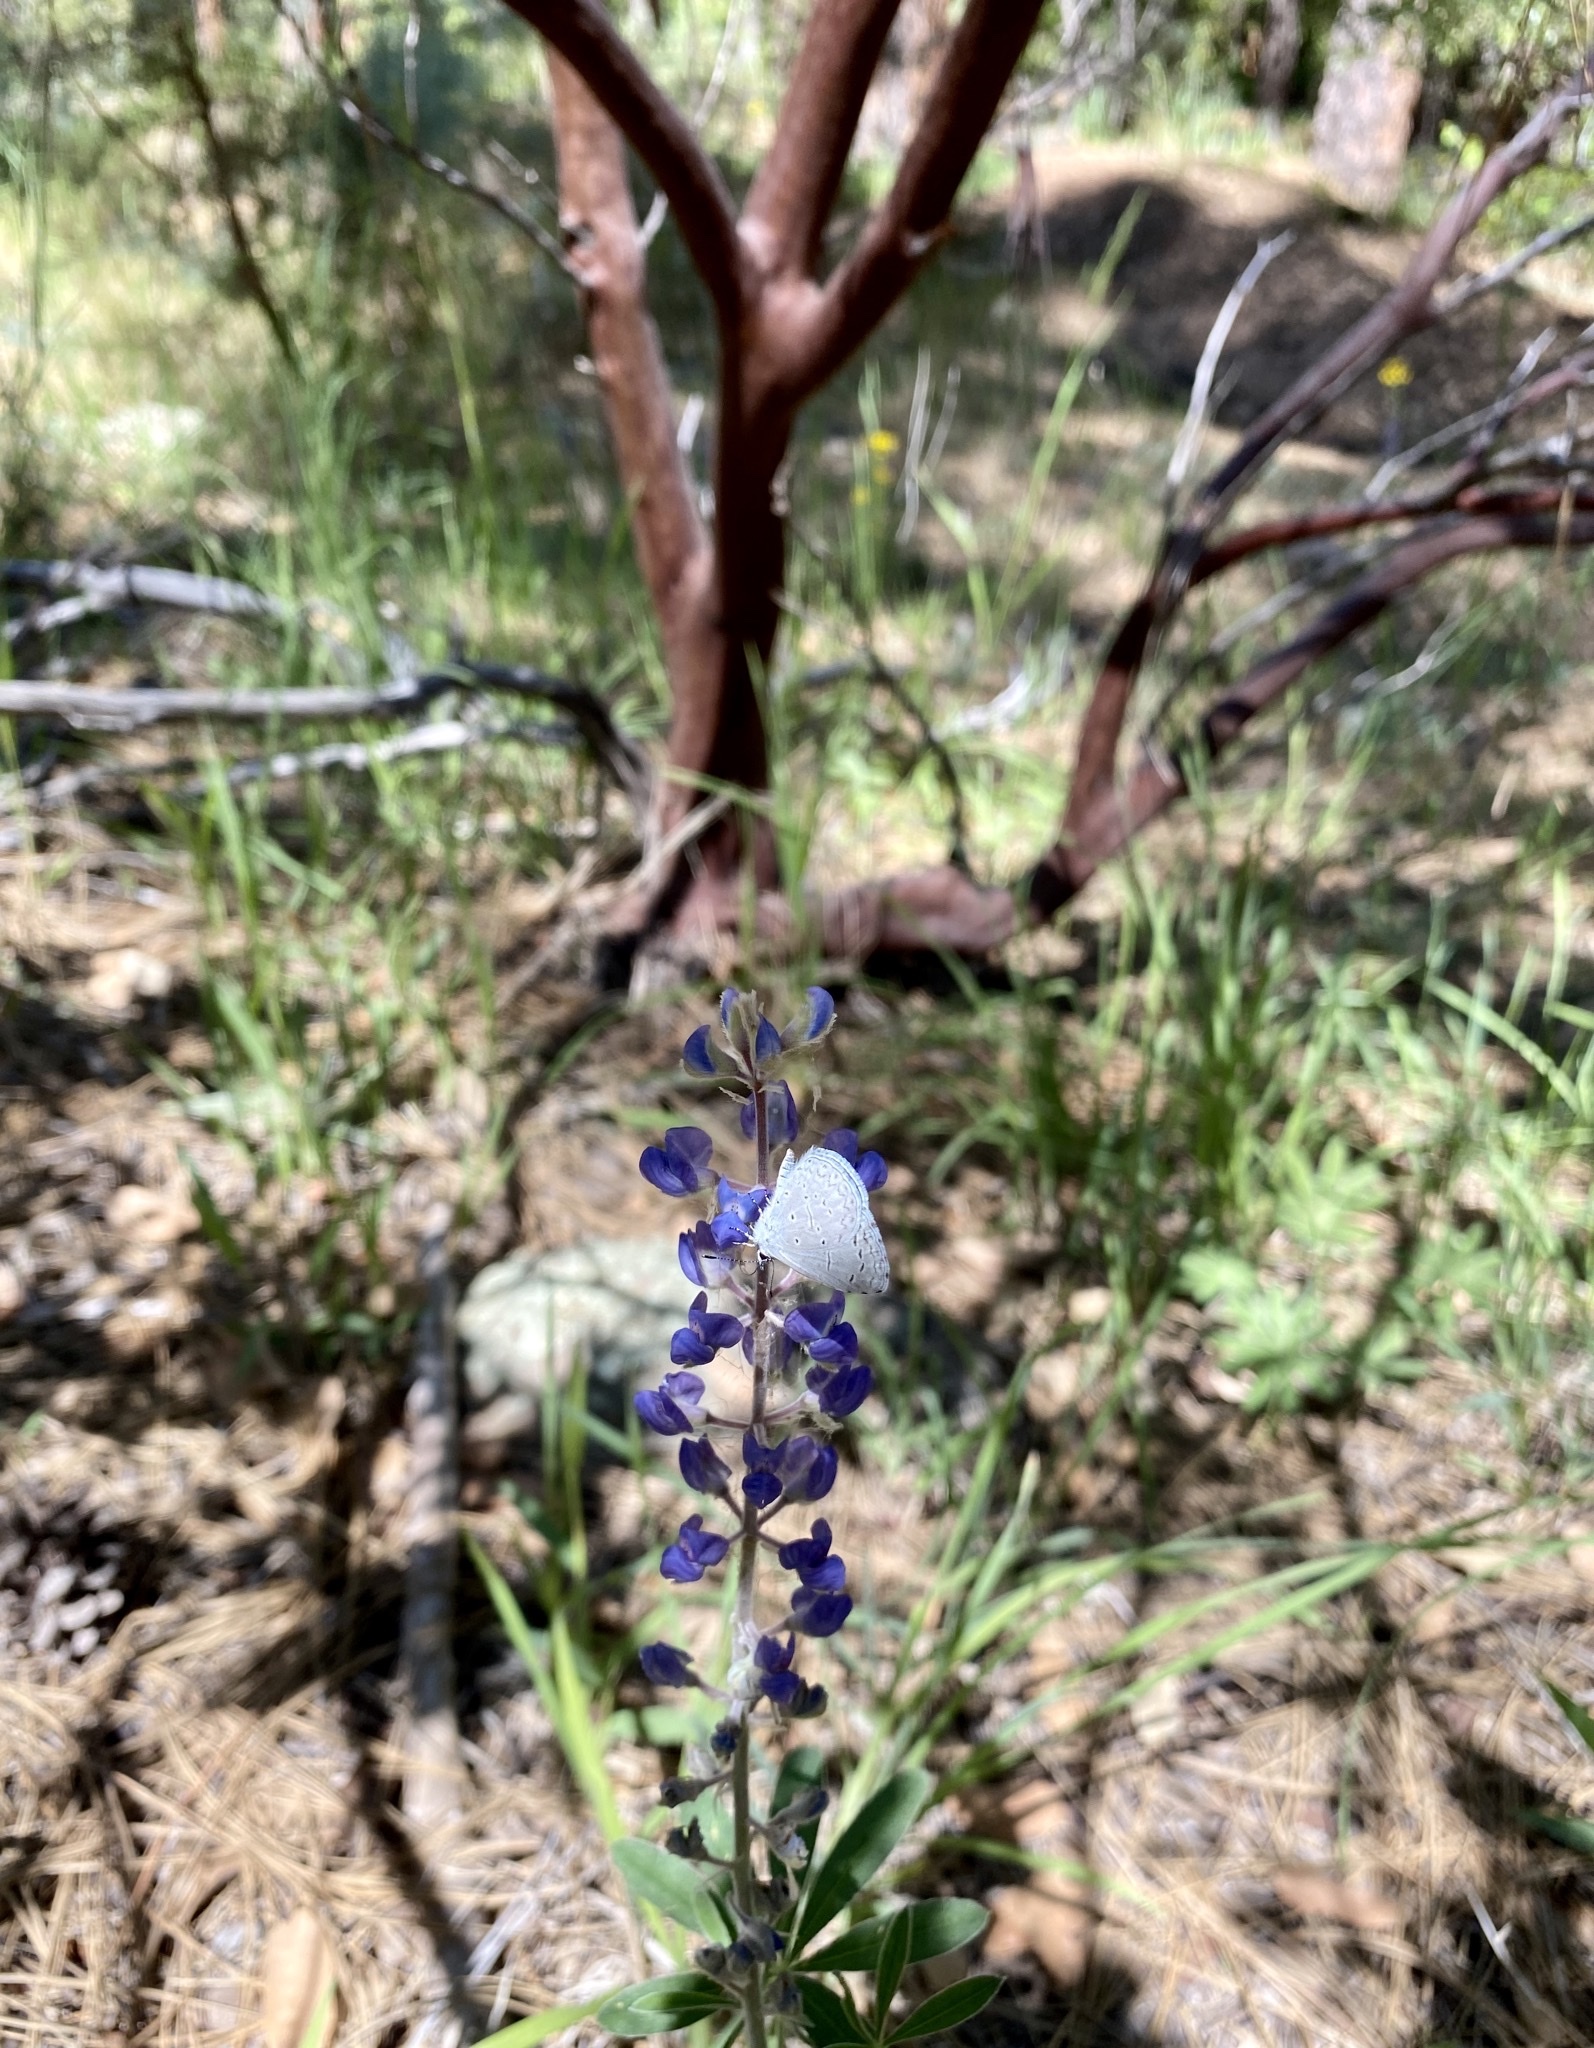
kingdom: Animalia
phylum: Arthropoda
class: Insecta
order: Lepidoptera
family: Lycaenidae
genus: Celastrina
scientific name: Celastrina ladon
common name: Spring azure
